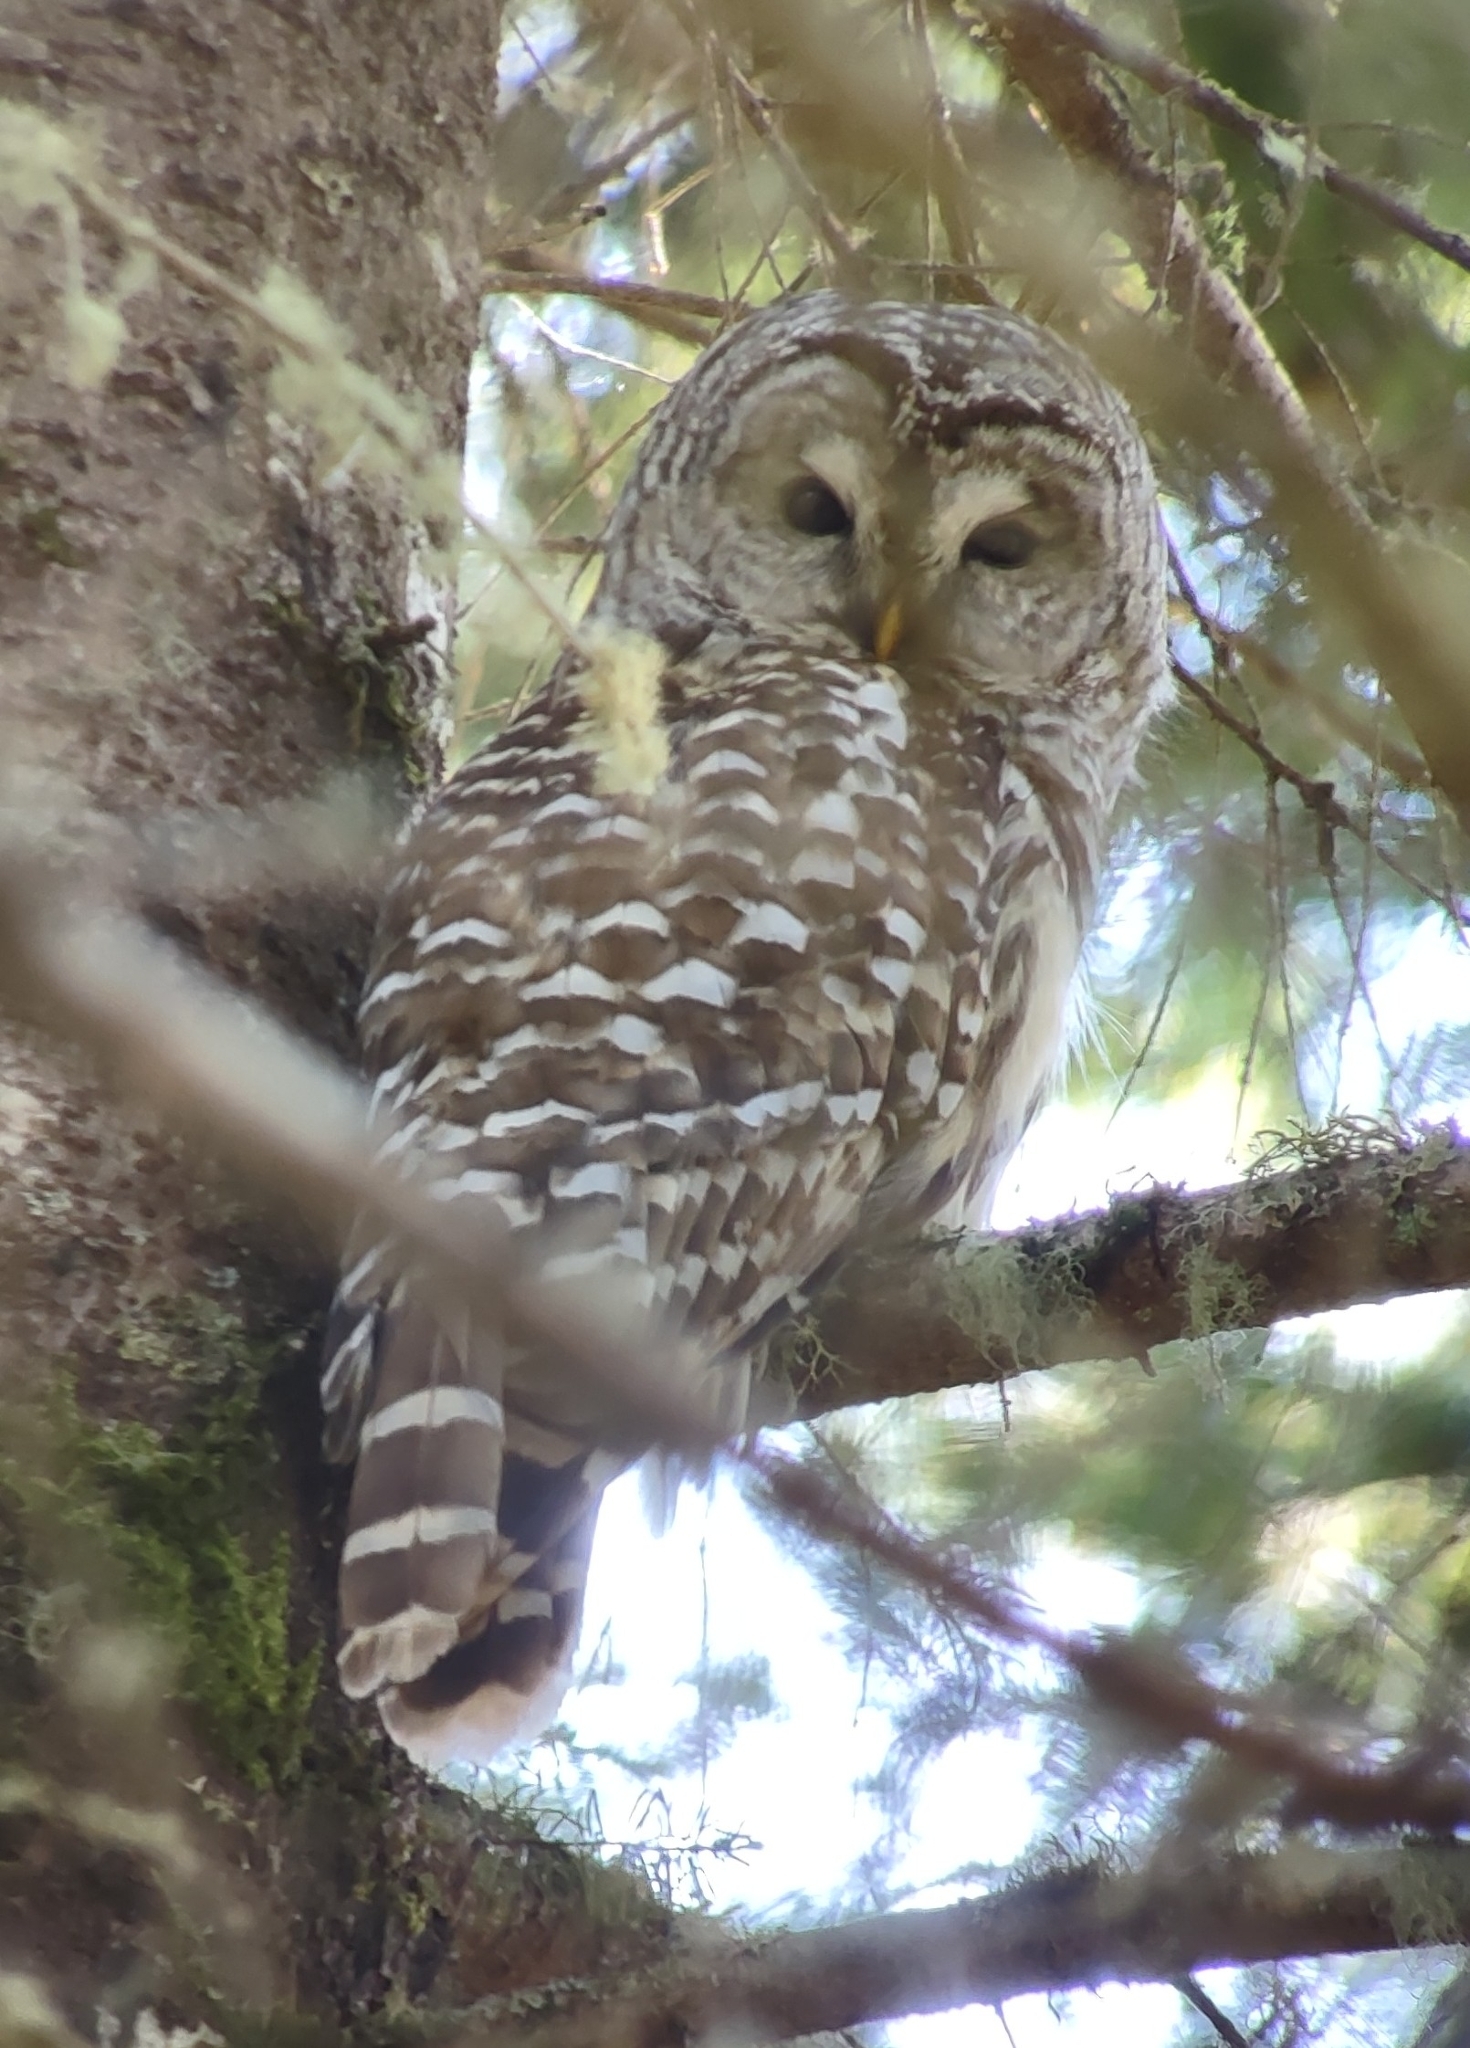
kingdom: Animalia
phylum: Chordata
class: Aves
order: Strigiformes
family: Strigidae
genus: Strix
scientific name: Strix varia
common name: Barred owl
